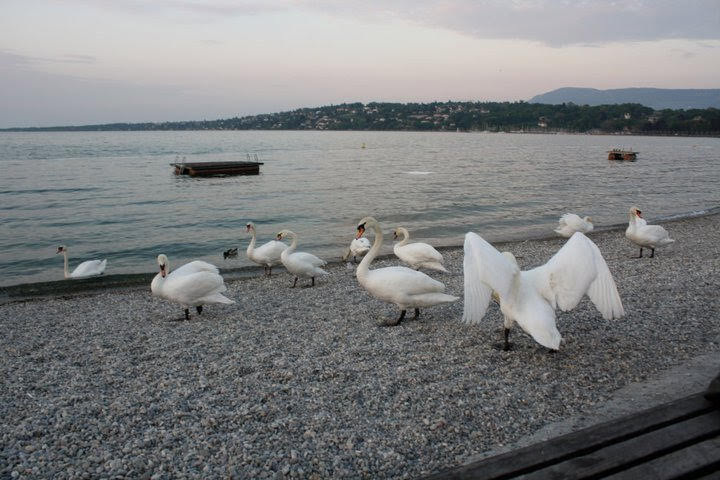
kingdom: Animalia
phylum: Chordata
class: Aves
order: Anseriformes
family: Anatidae
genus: Cygnus
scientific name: Cygnus olor
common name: Mute swan
